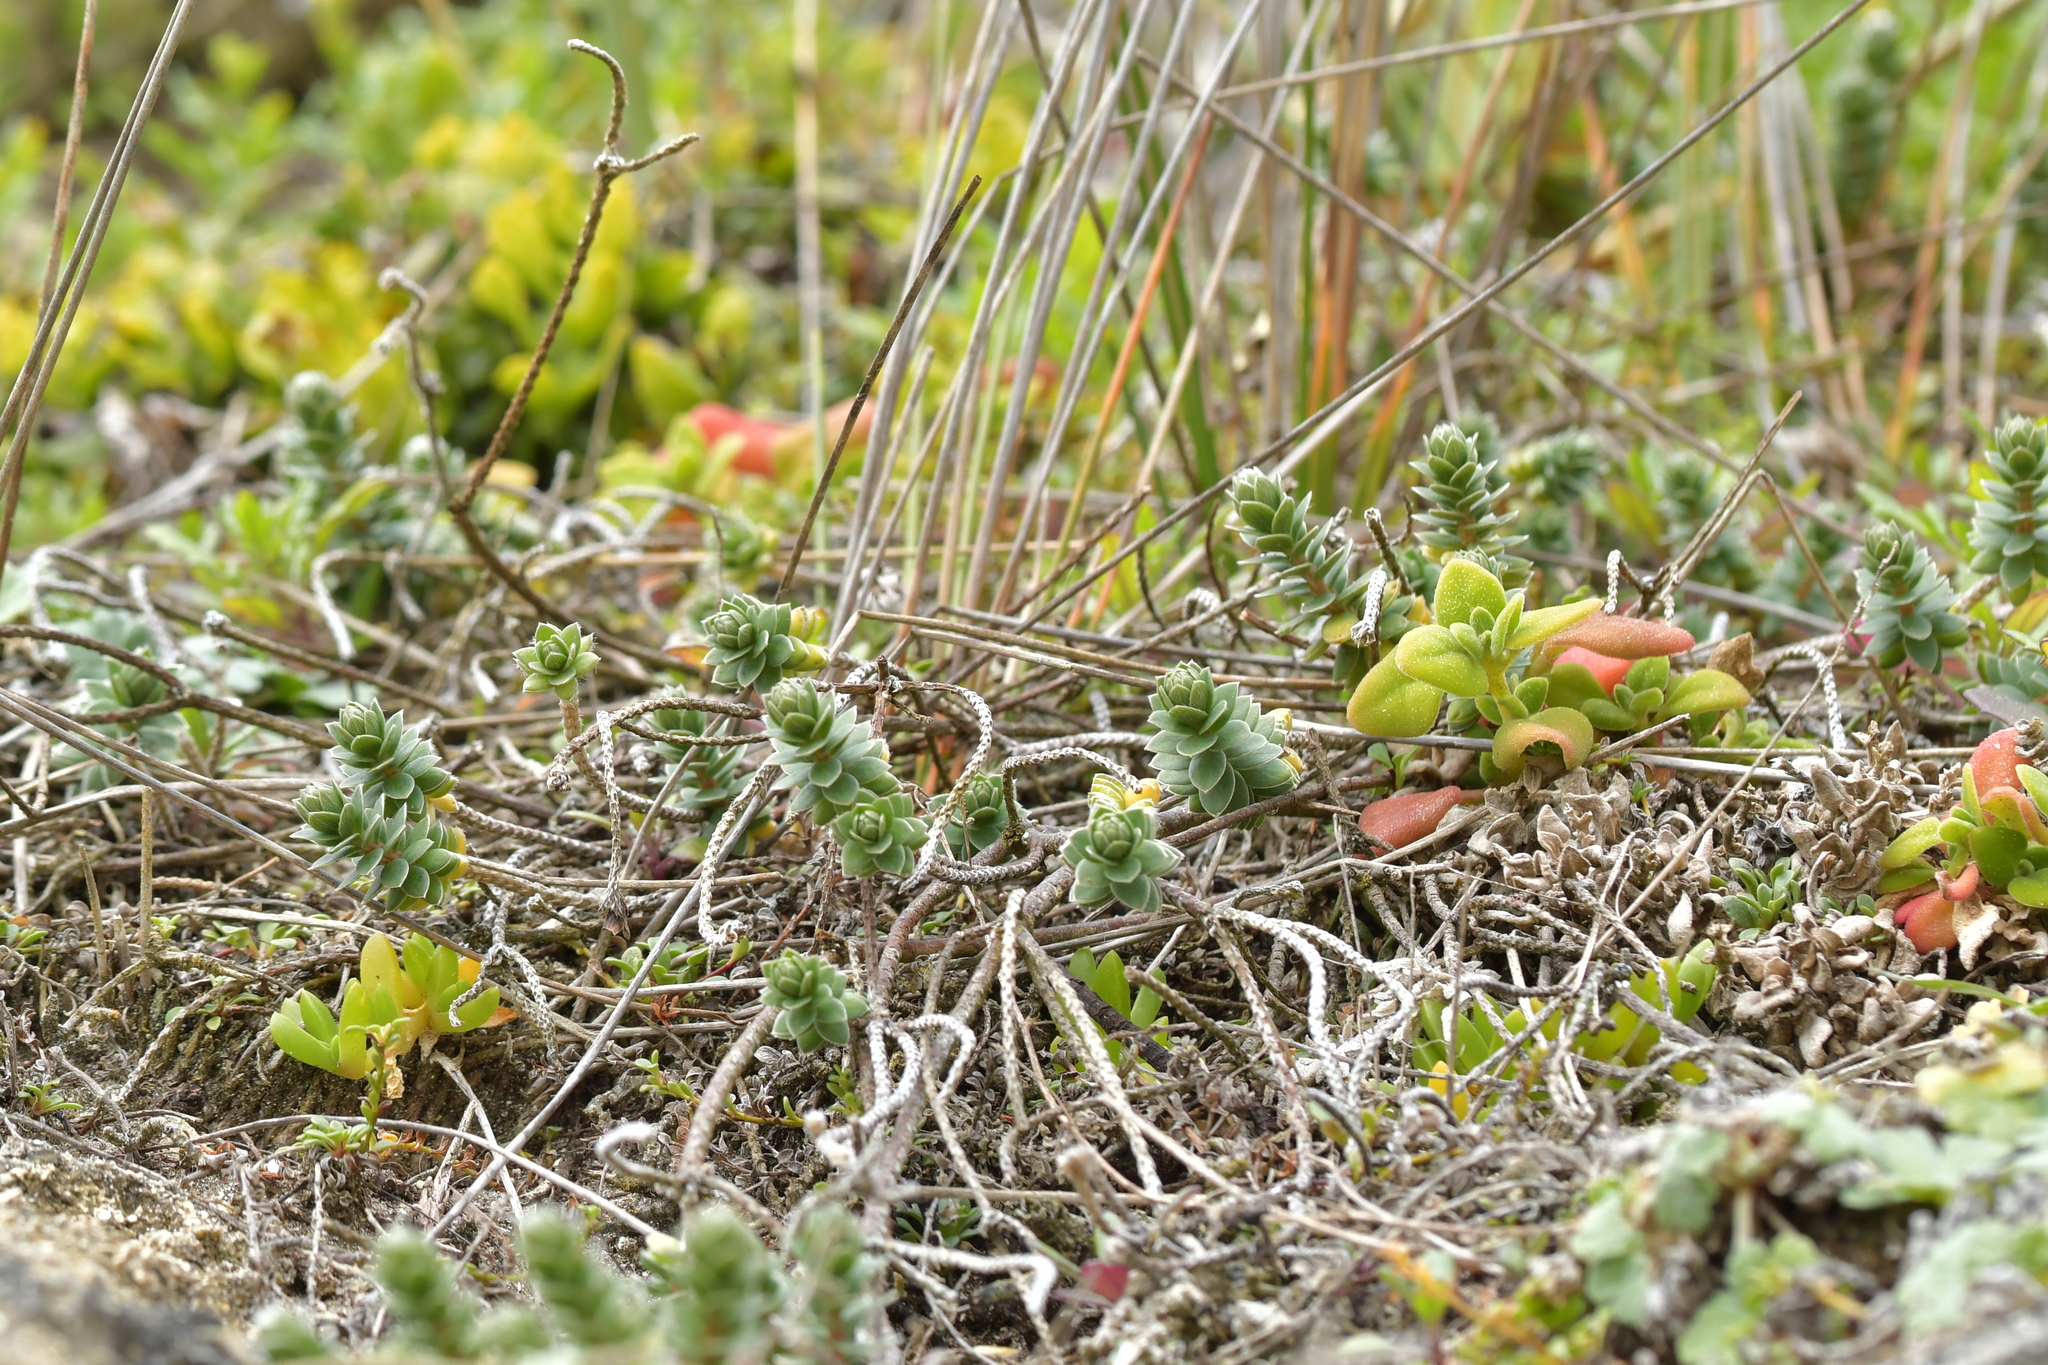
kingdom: Plantae
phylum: Tracheophyta
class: Magnoliopsida
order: Malvales
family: Thymelaeaceae
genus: Pimelea
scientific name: Pimelea villosa
